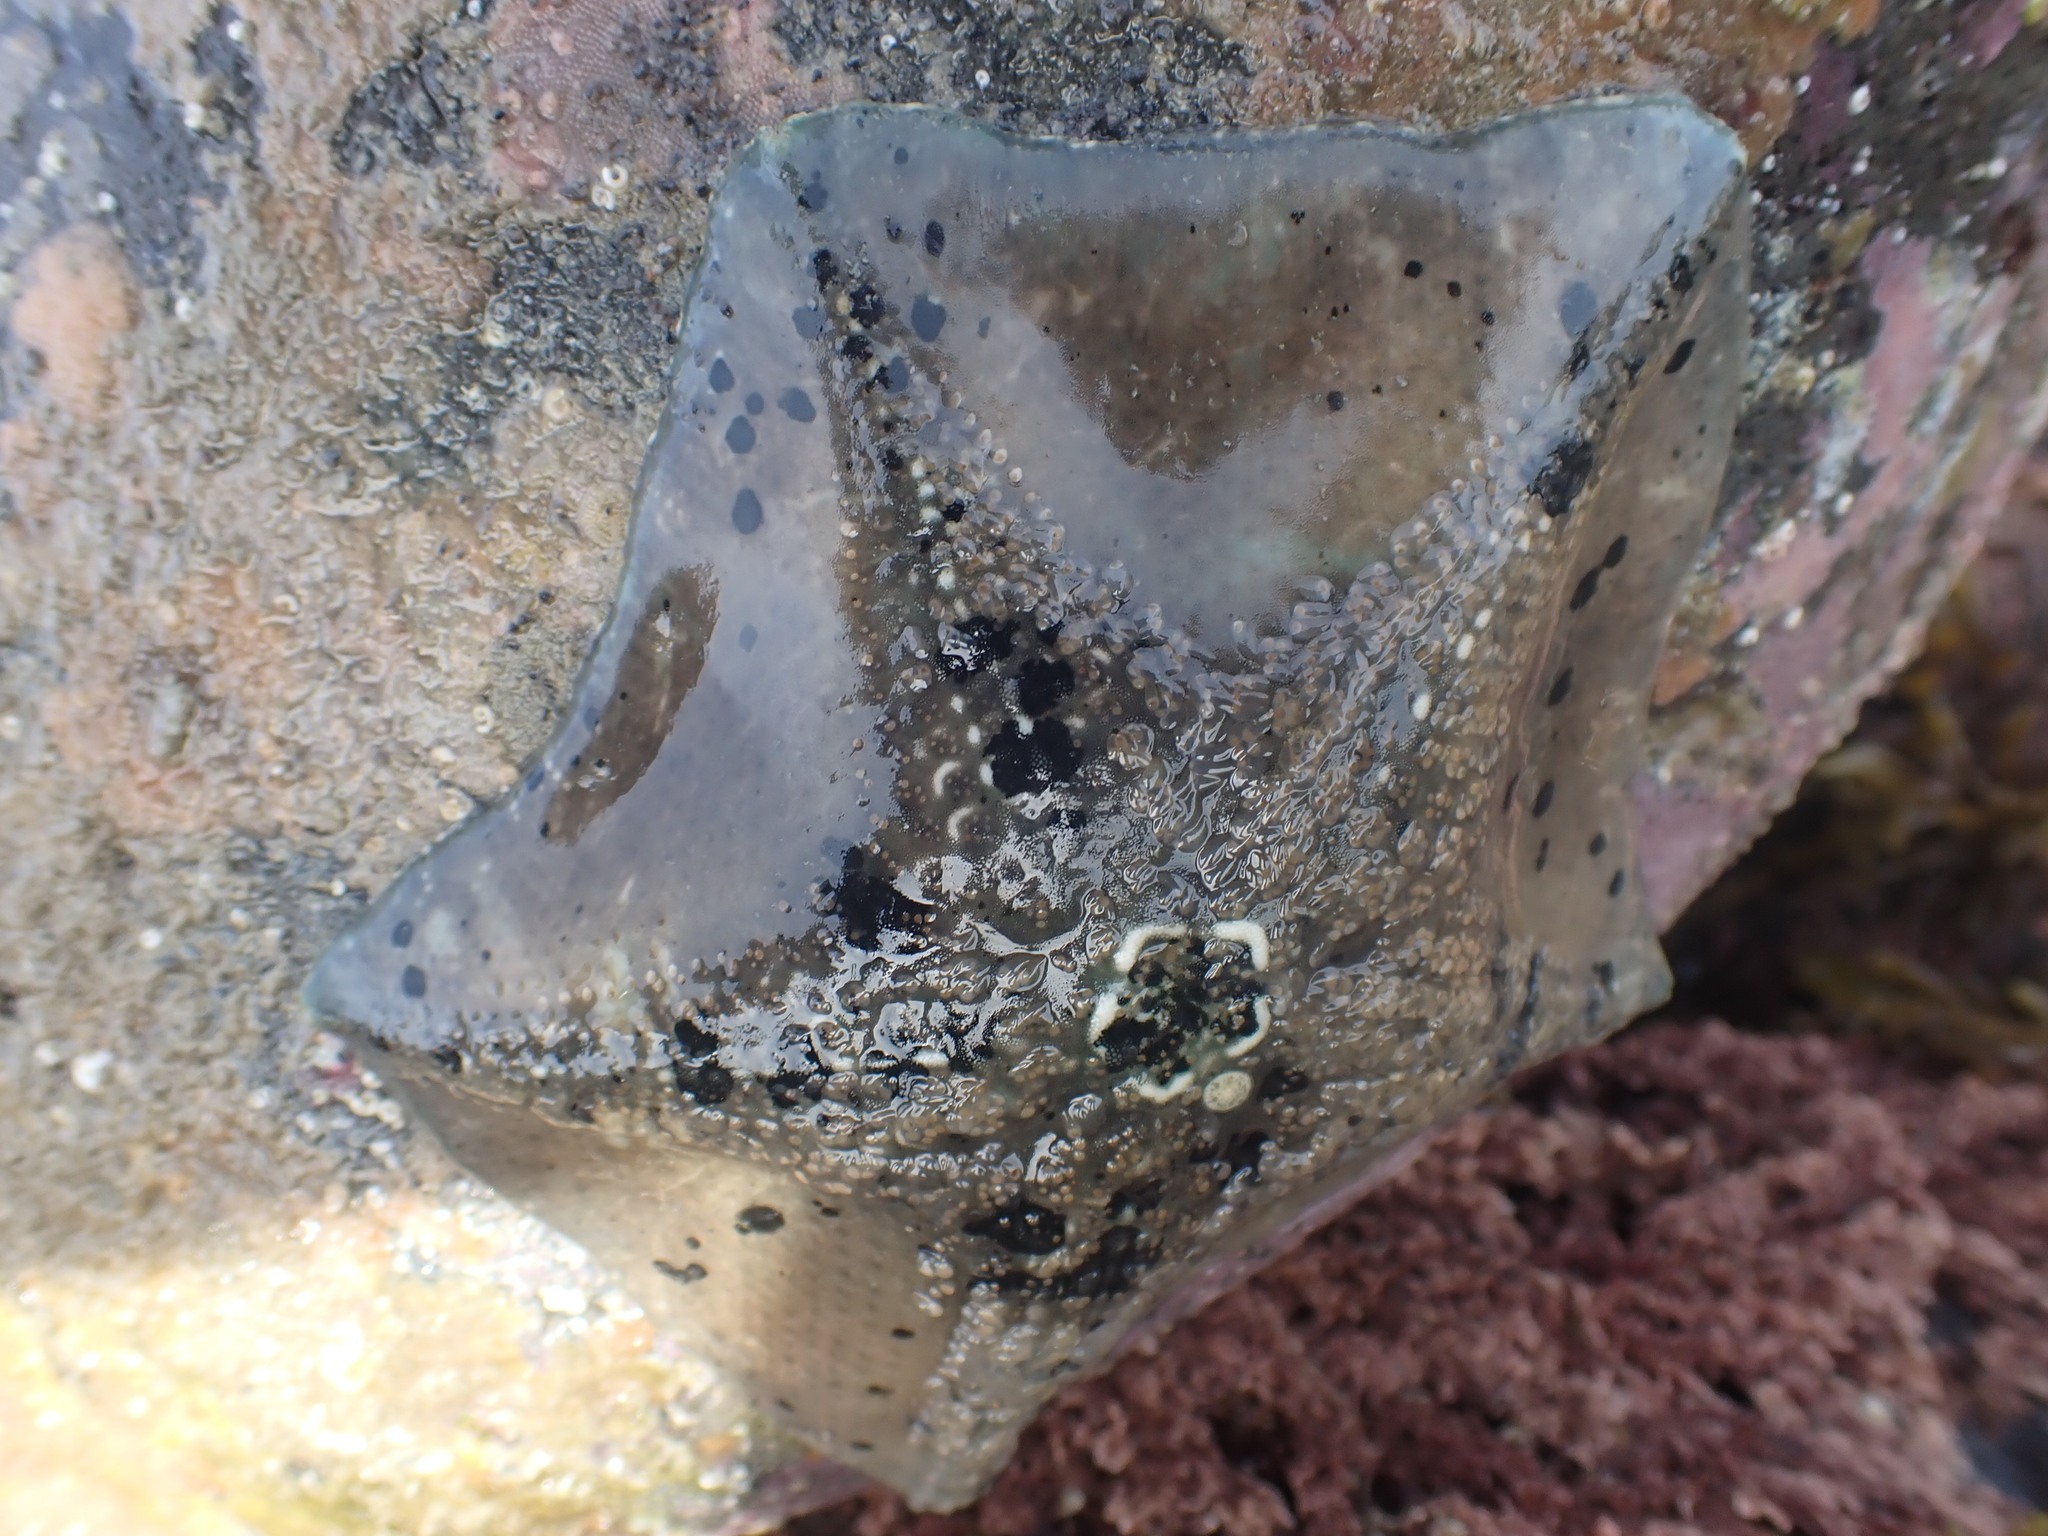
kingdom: Animalia
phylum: Echinodermata
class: Asteroidea
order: Valvatida
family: Asterinidae
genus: Stegnaster
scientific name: Stegnaster inflatus
